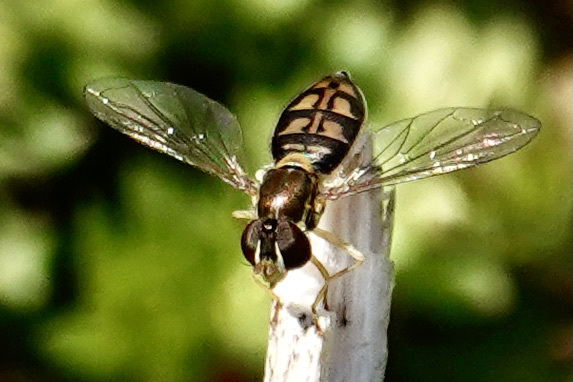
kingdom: Animalia
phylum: Arthropoda
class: Insecta
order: Diptera
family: Syrphidae
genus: Toxomerus
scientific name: Toxomerus marginatus
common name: Syrphid fly
